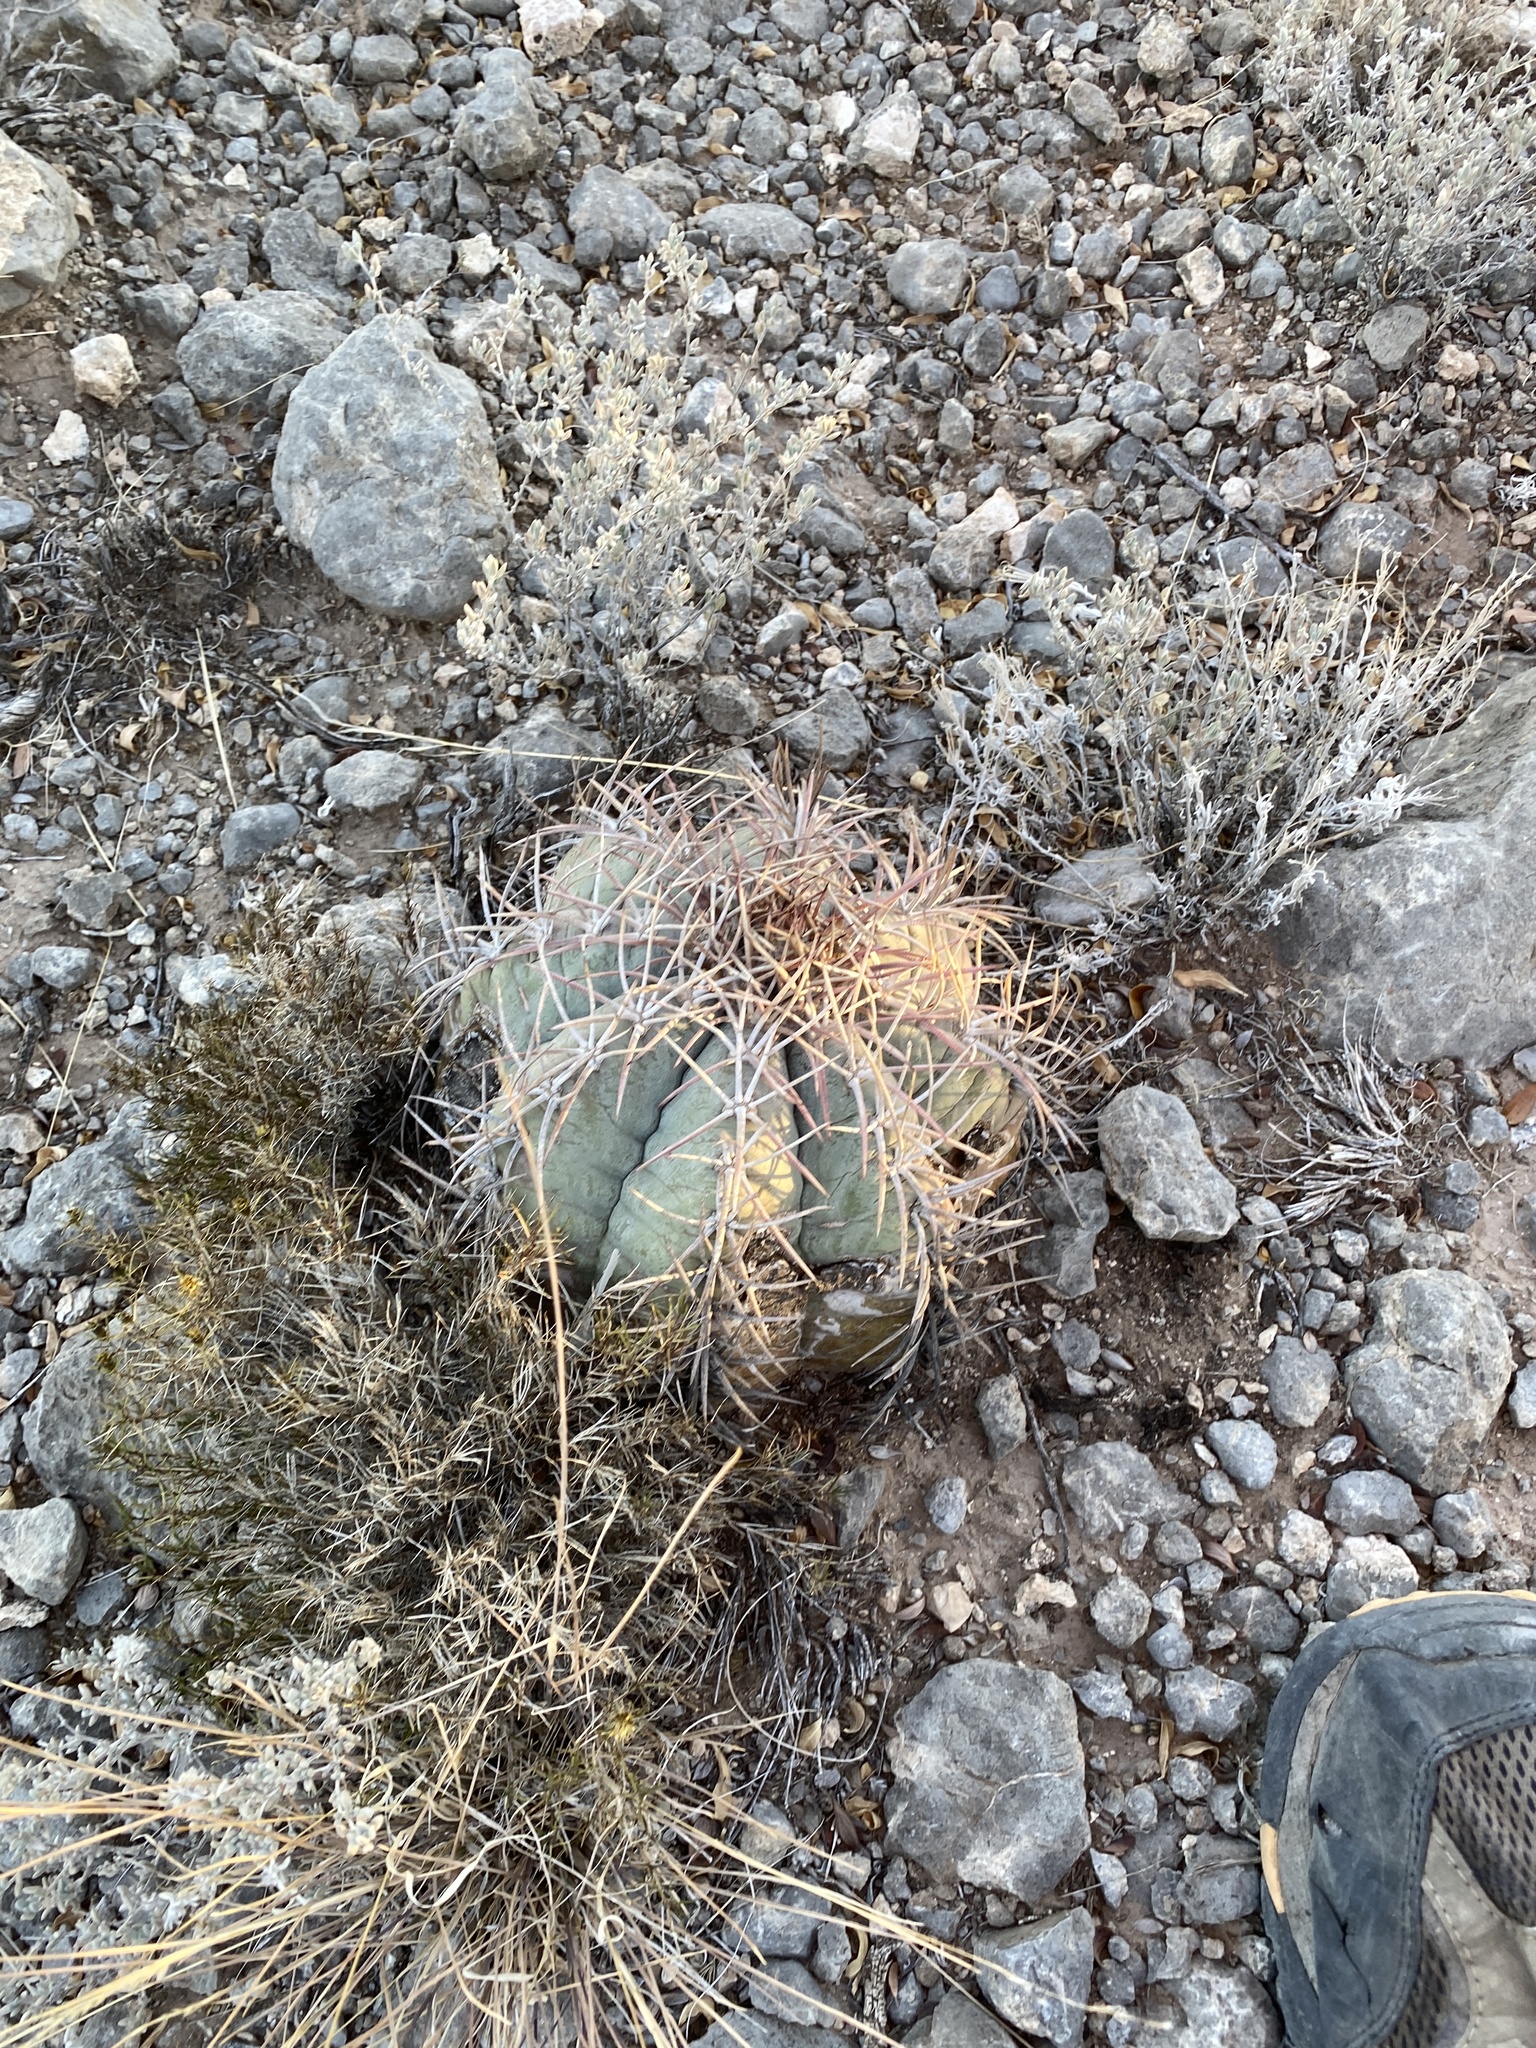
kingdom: Plantae
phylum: Tracheophyta
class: Magnoliopsida
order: Caryophyllales
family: Cactaceae
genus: Echinocactus
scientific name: Echinocactus horizonthalonius
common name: Devilshead
